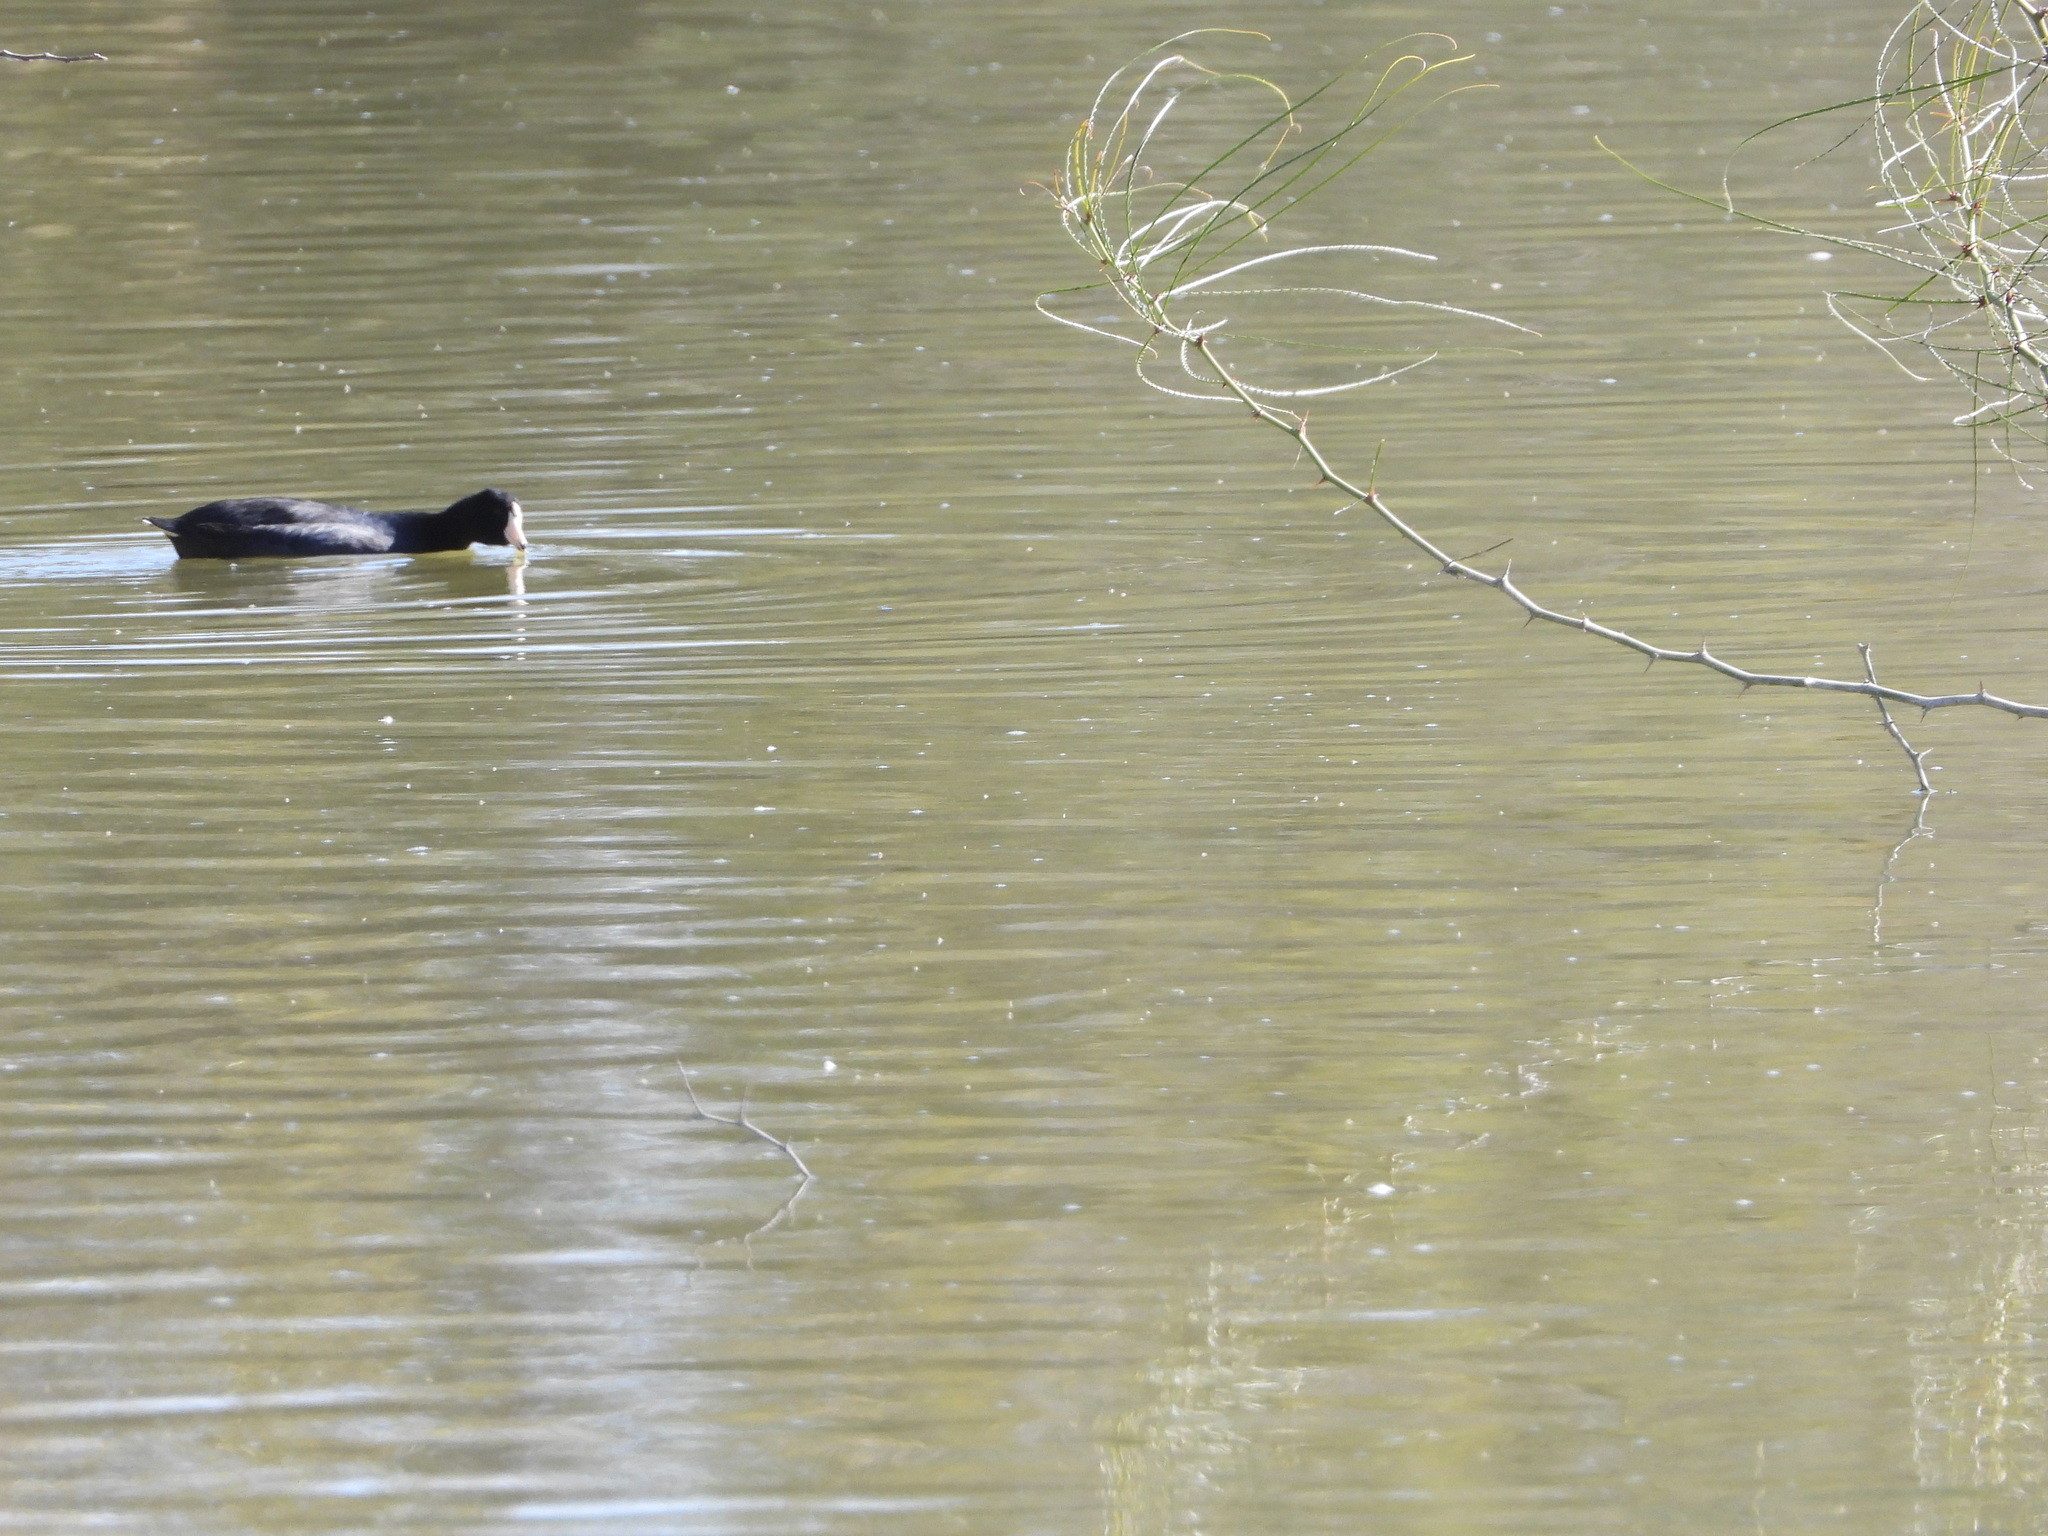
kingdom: Animalia
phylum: Chordata
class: Aves
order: Gruiformes
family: Rallidae
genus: Fulica
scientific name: Fulica americana
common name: American coot
